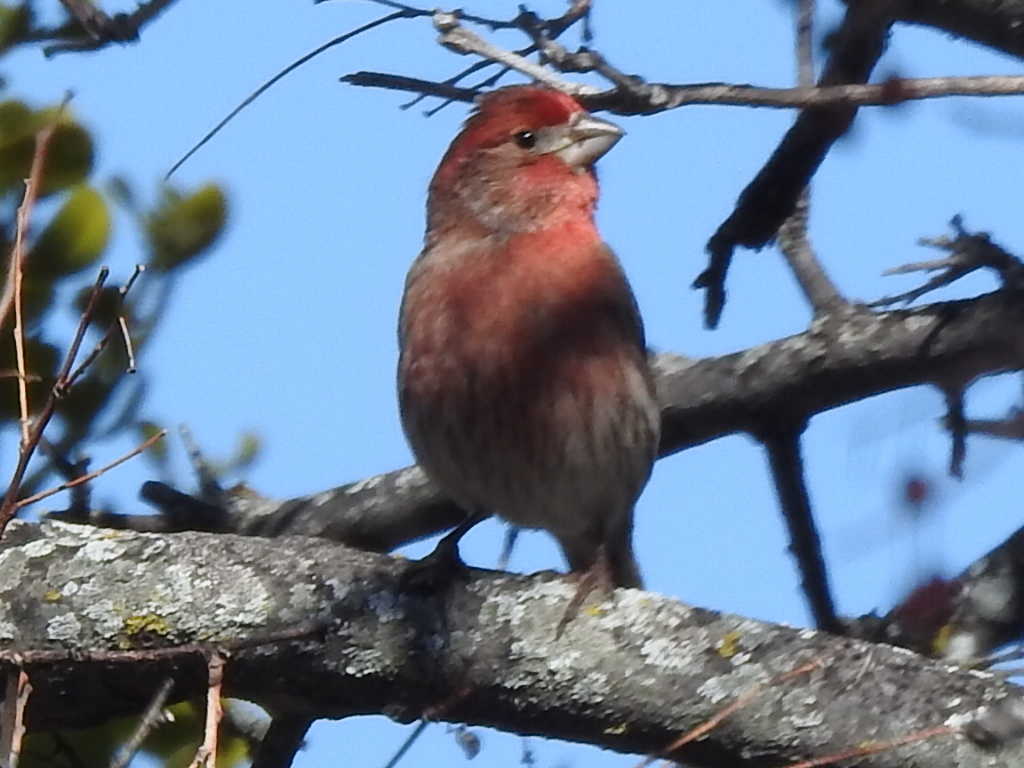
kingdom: Animalia
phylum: Chordata
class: Aves
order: Passeriformes
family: Fringillidae
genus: Haemorhous
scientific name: Haemorhous mexicanus
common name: House finch
